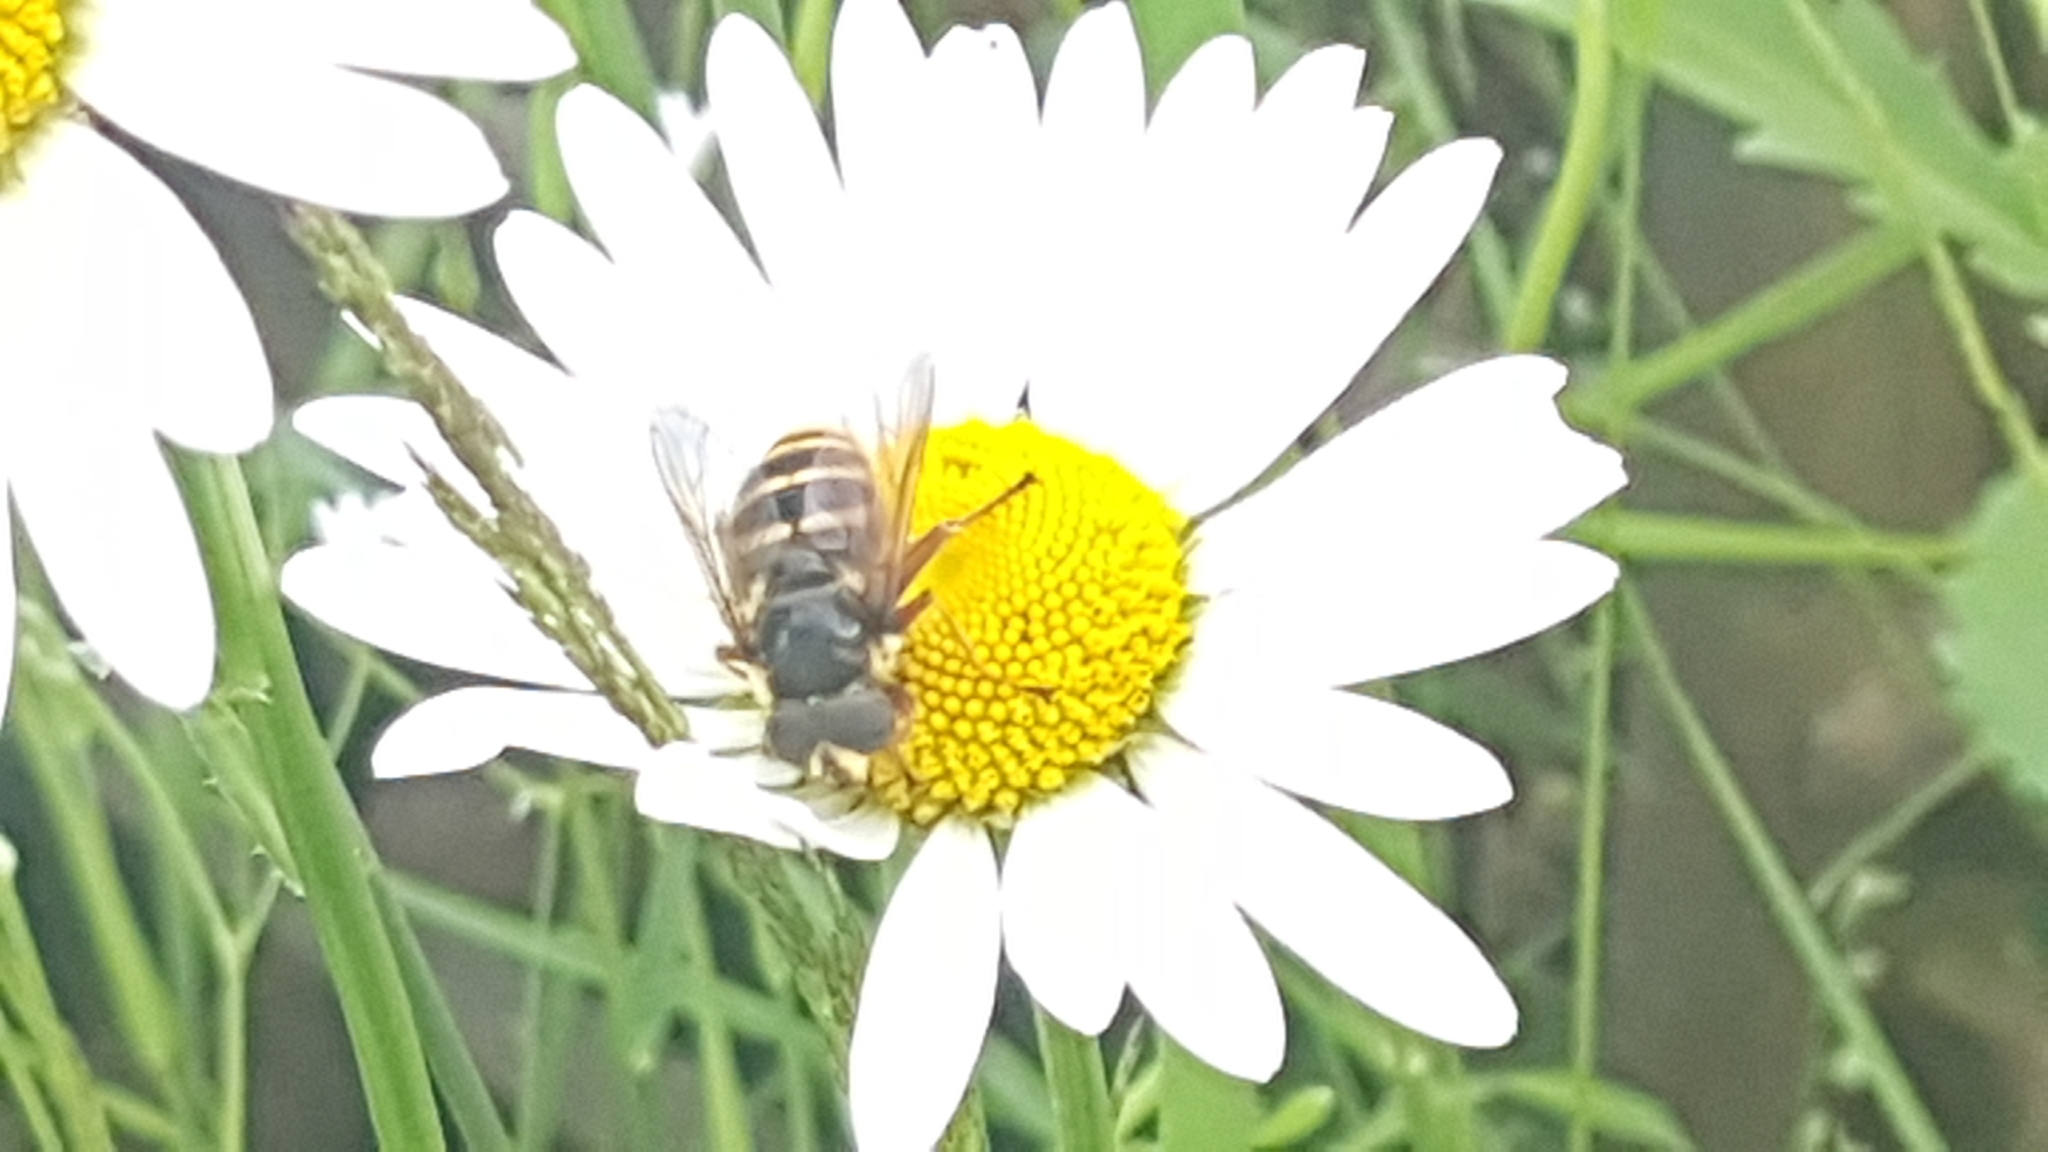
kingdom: Animalia
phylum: Arthropoda
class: Insecta
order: Diptera
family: Syrphidae
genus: Sericomyia
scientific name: Sericomyia silentis
